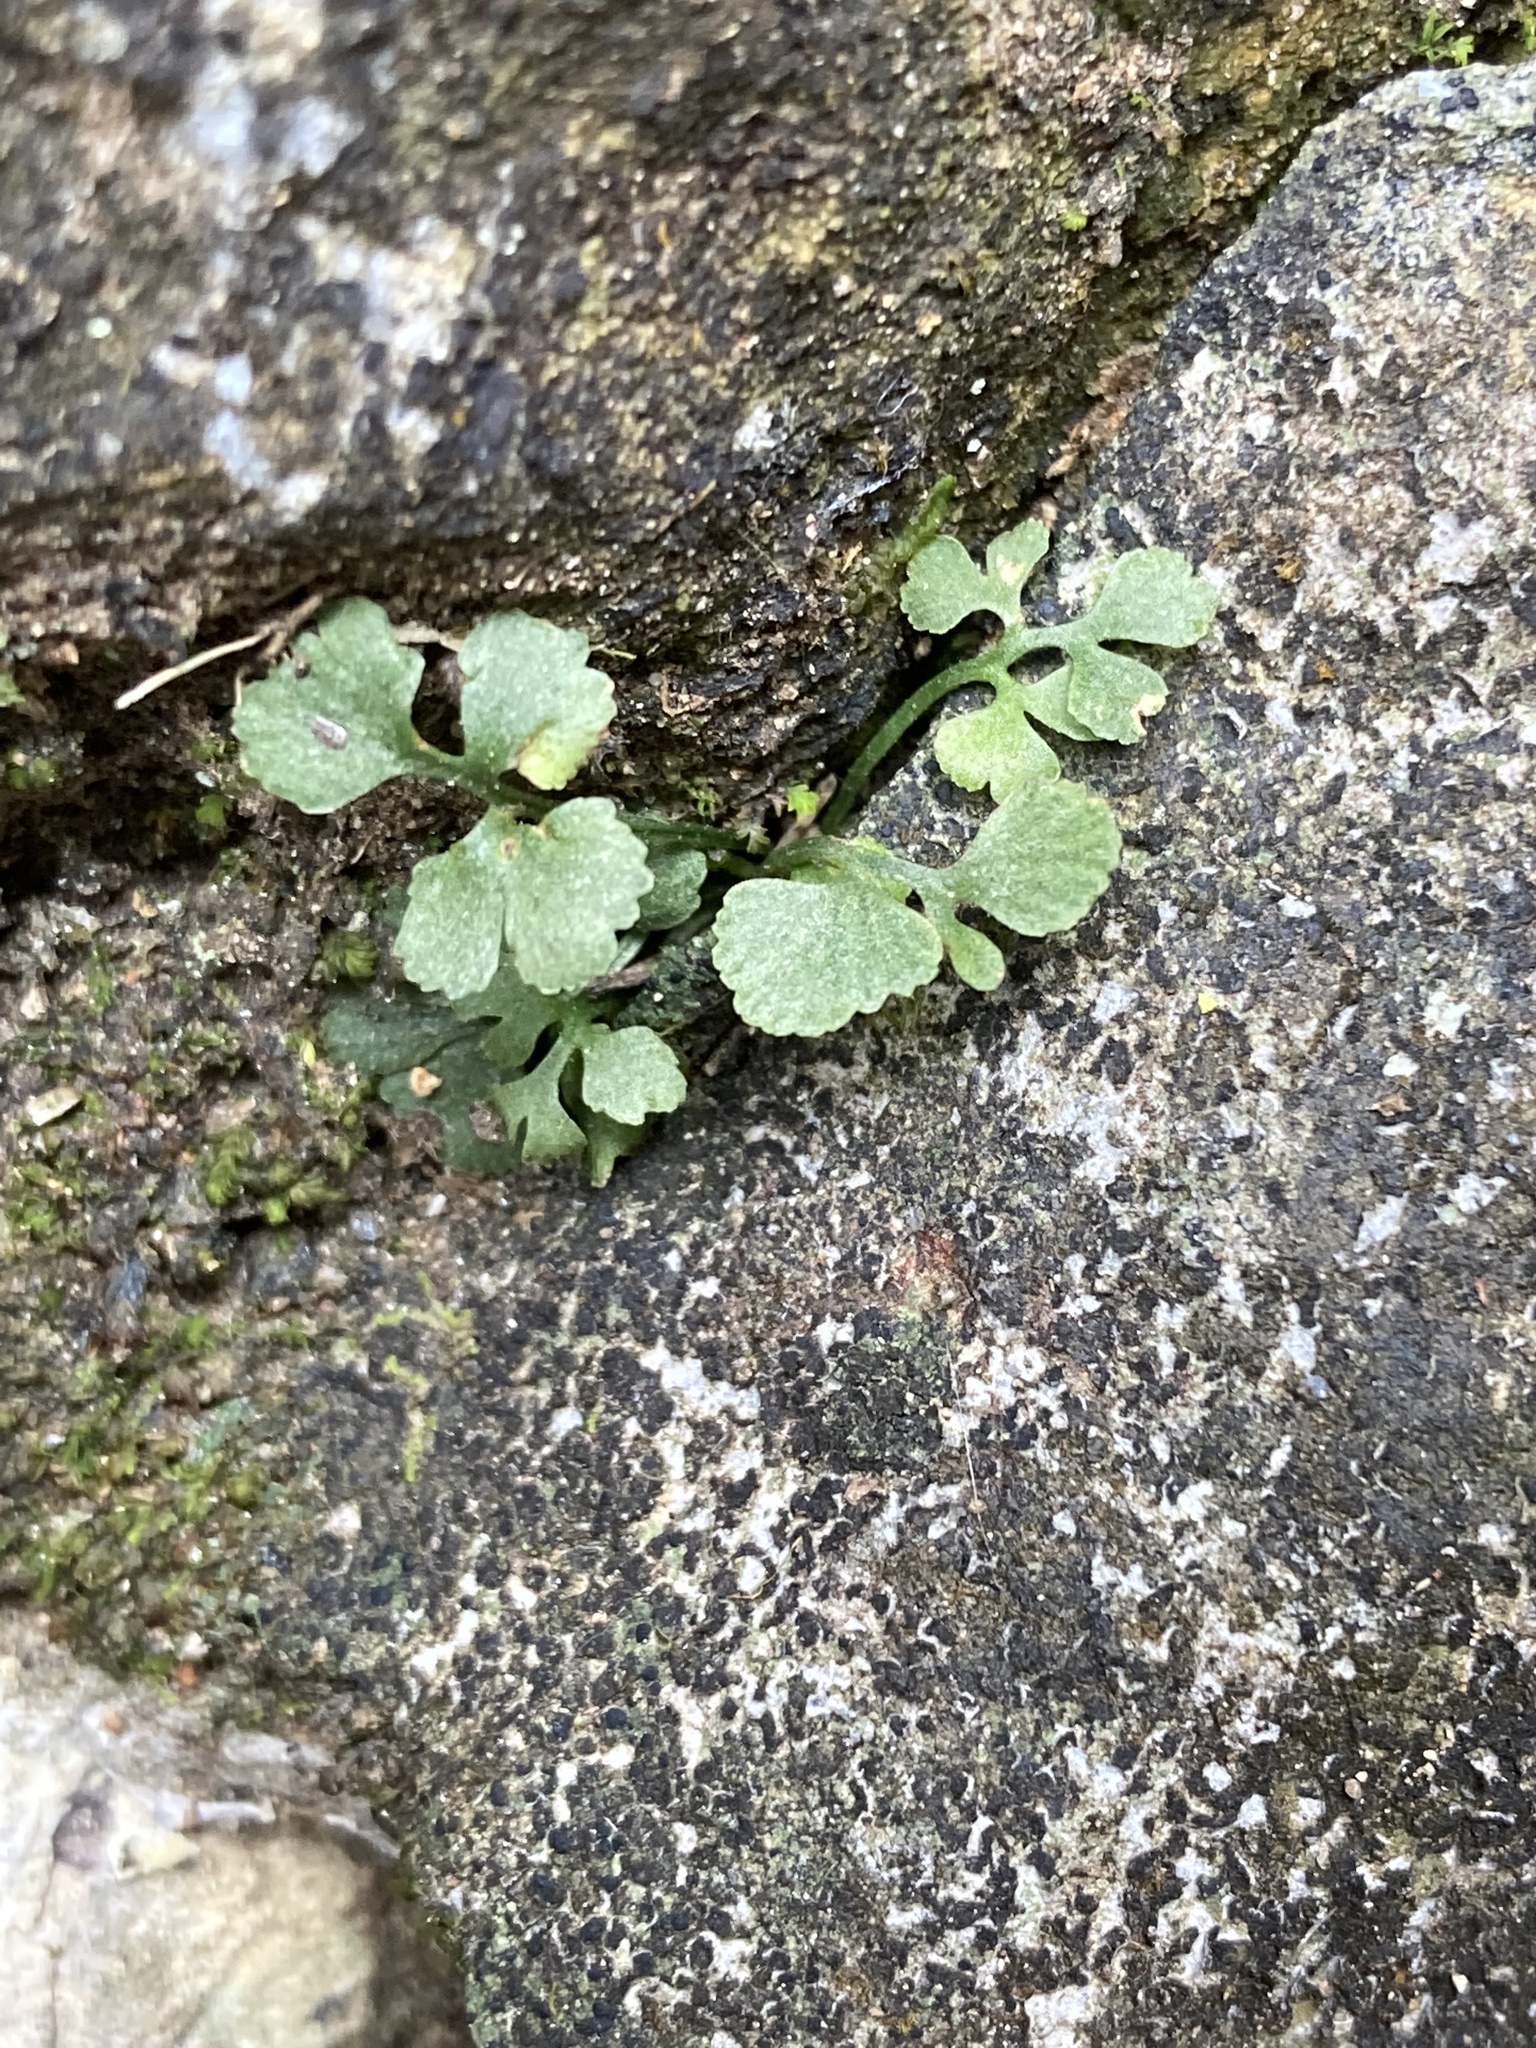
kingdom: Plantae
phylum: Tracheophyta
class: Polypodiopsida
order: Polypodiales
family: Aspleniaceae
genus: Asplenium
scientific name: Asplenium ruta-muraria
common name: Wall-rue
